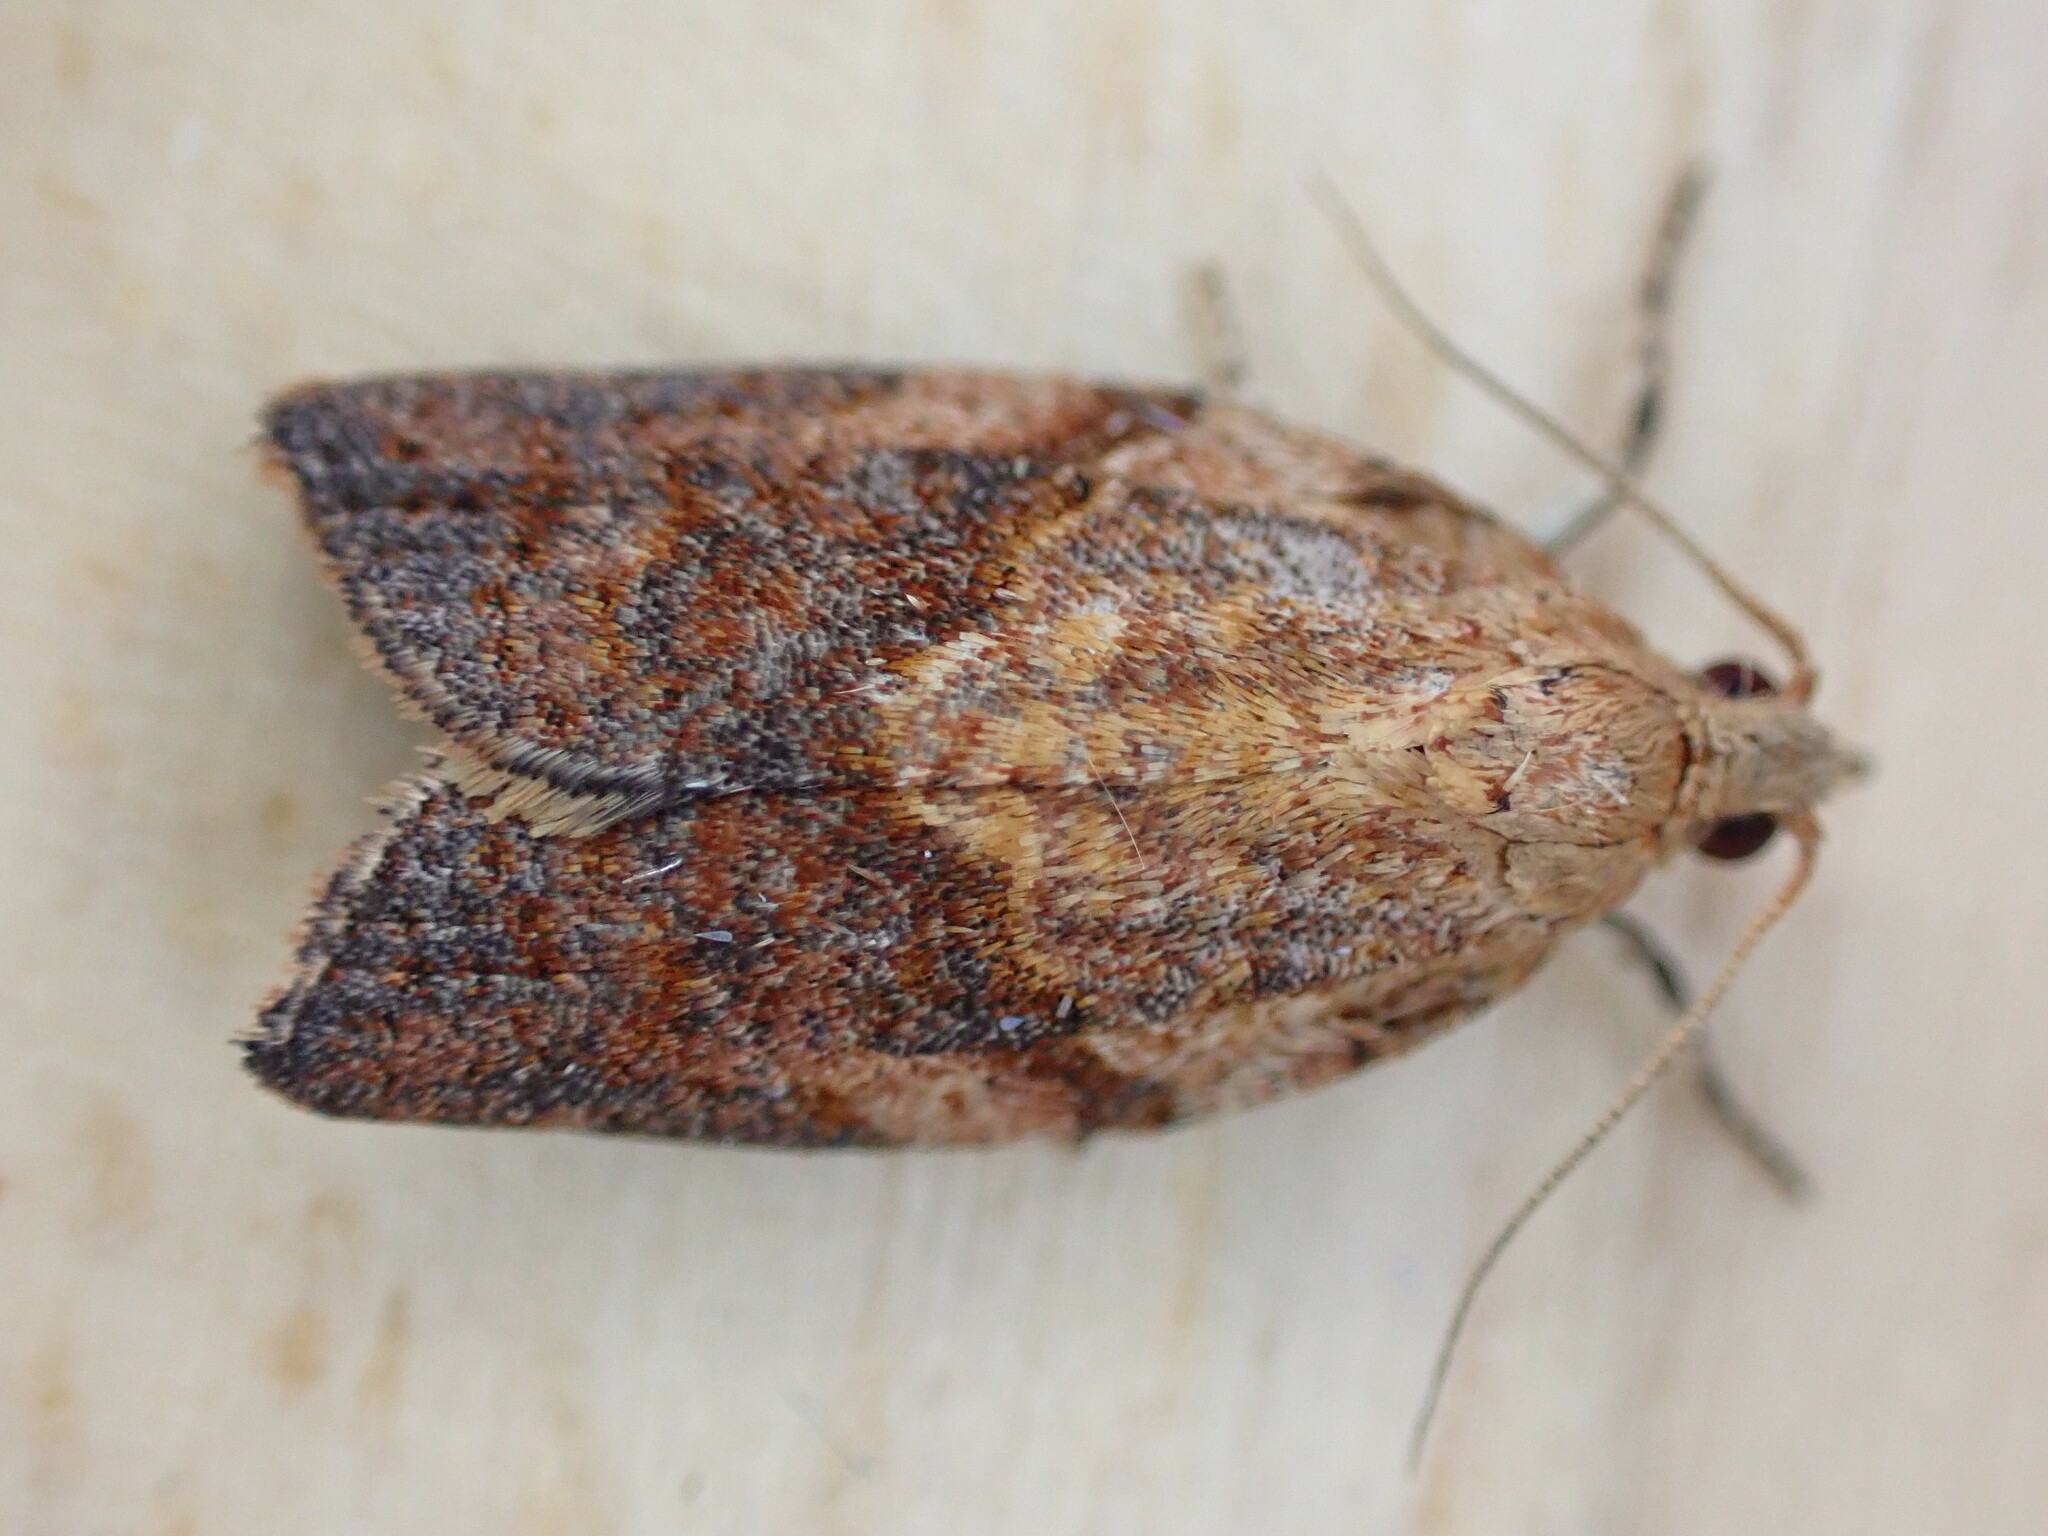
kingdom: Animalia
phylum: Arthropoda
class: Insecta
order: Lepidoptera
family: Tortricidae
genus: Epiphyas
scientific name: Epiphyas postvittana
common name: Light brown apple moth
